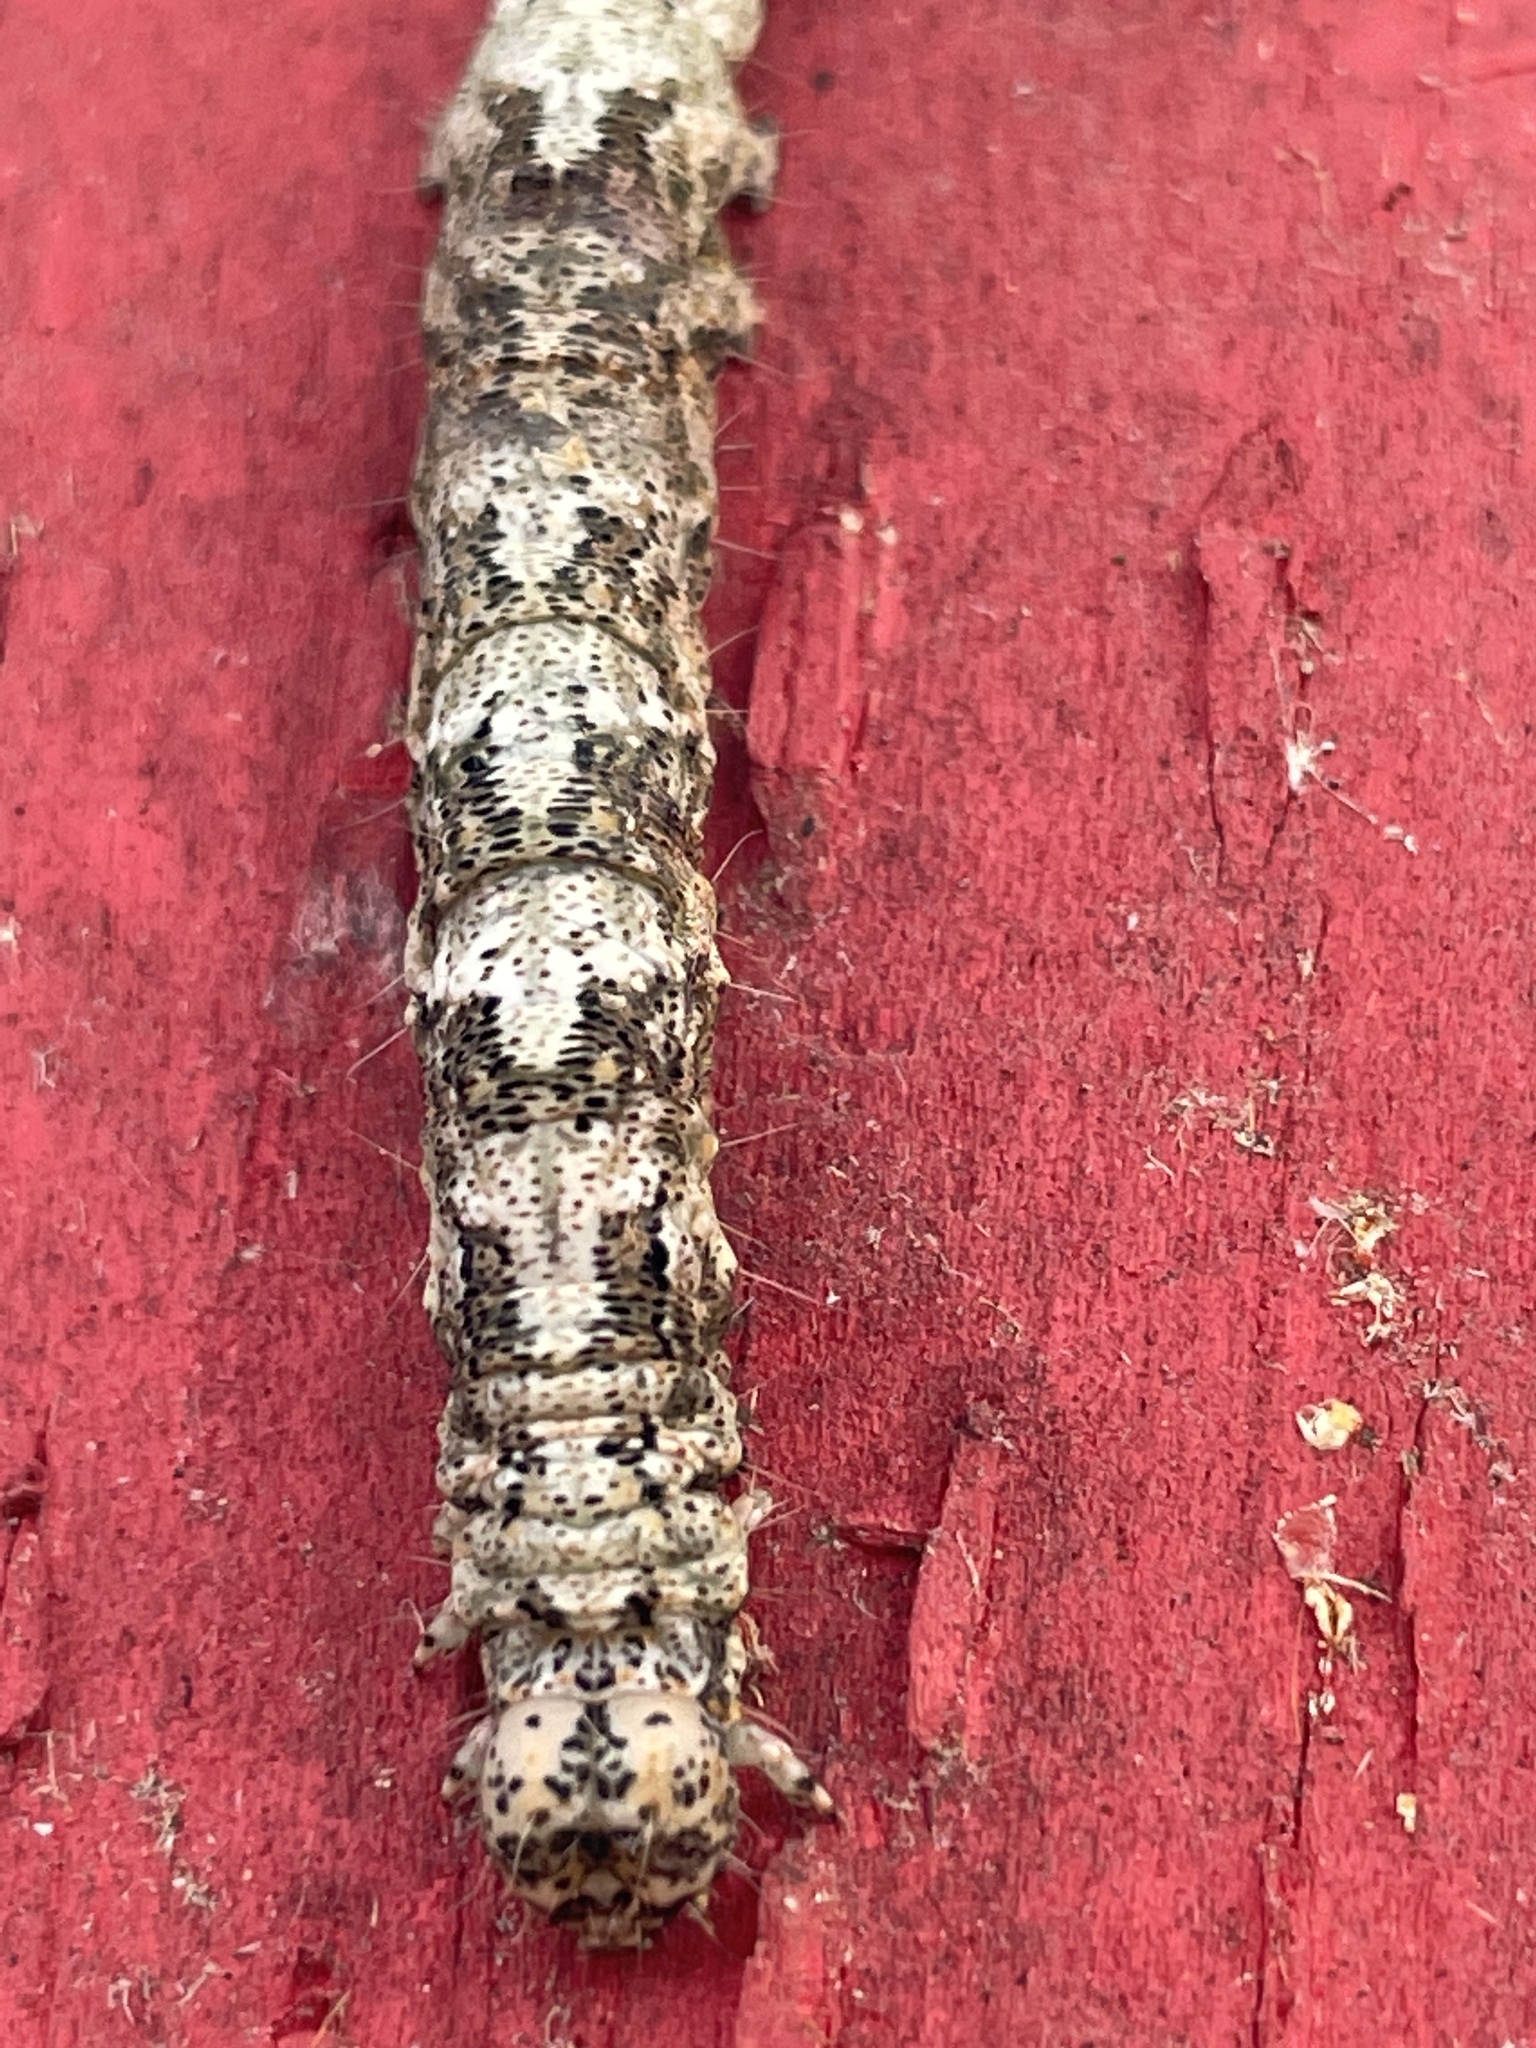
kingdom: Animalia
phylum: Arthropoda
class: Insecta
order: Lepidoptera
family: Erebidae
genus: Metria
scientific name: Metria amella
